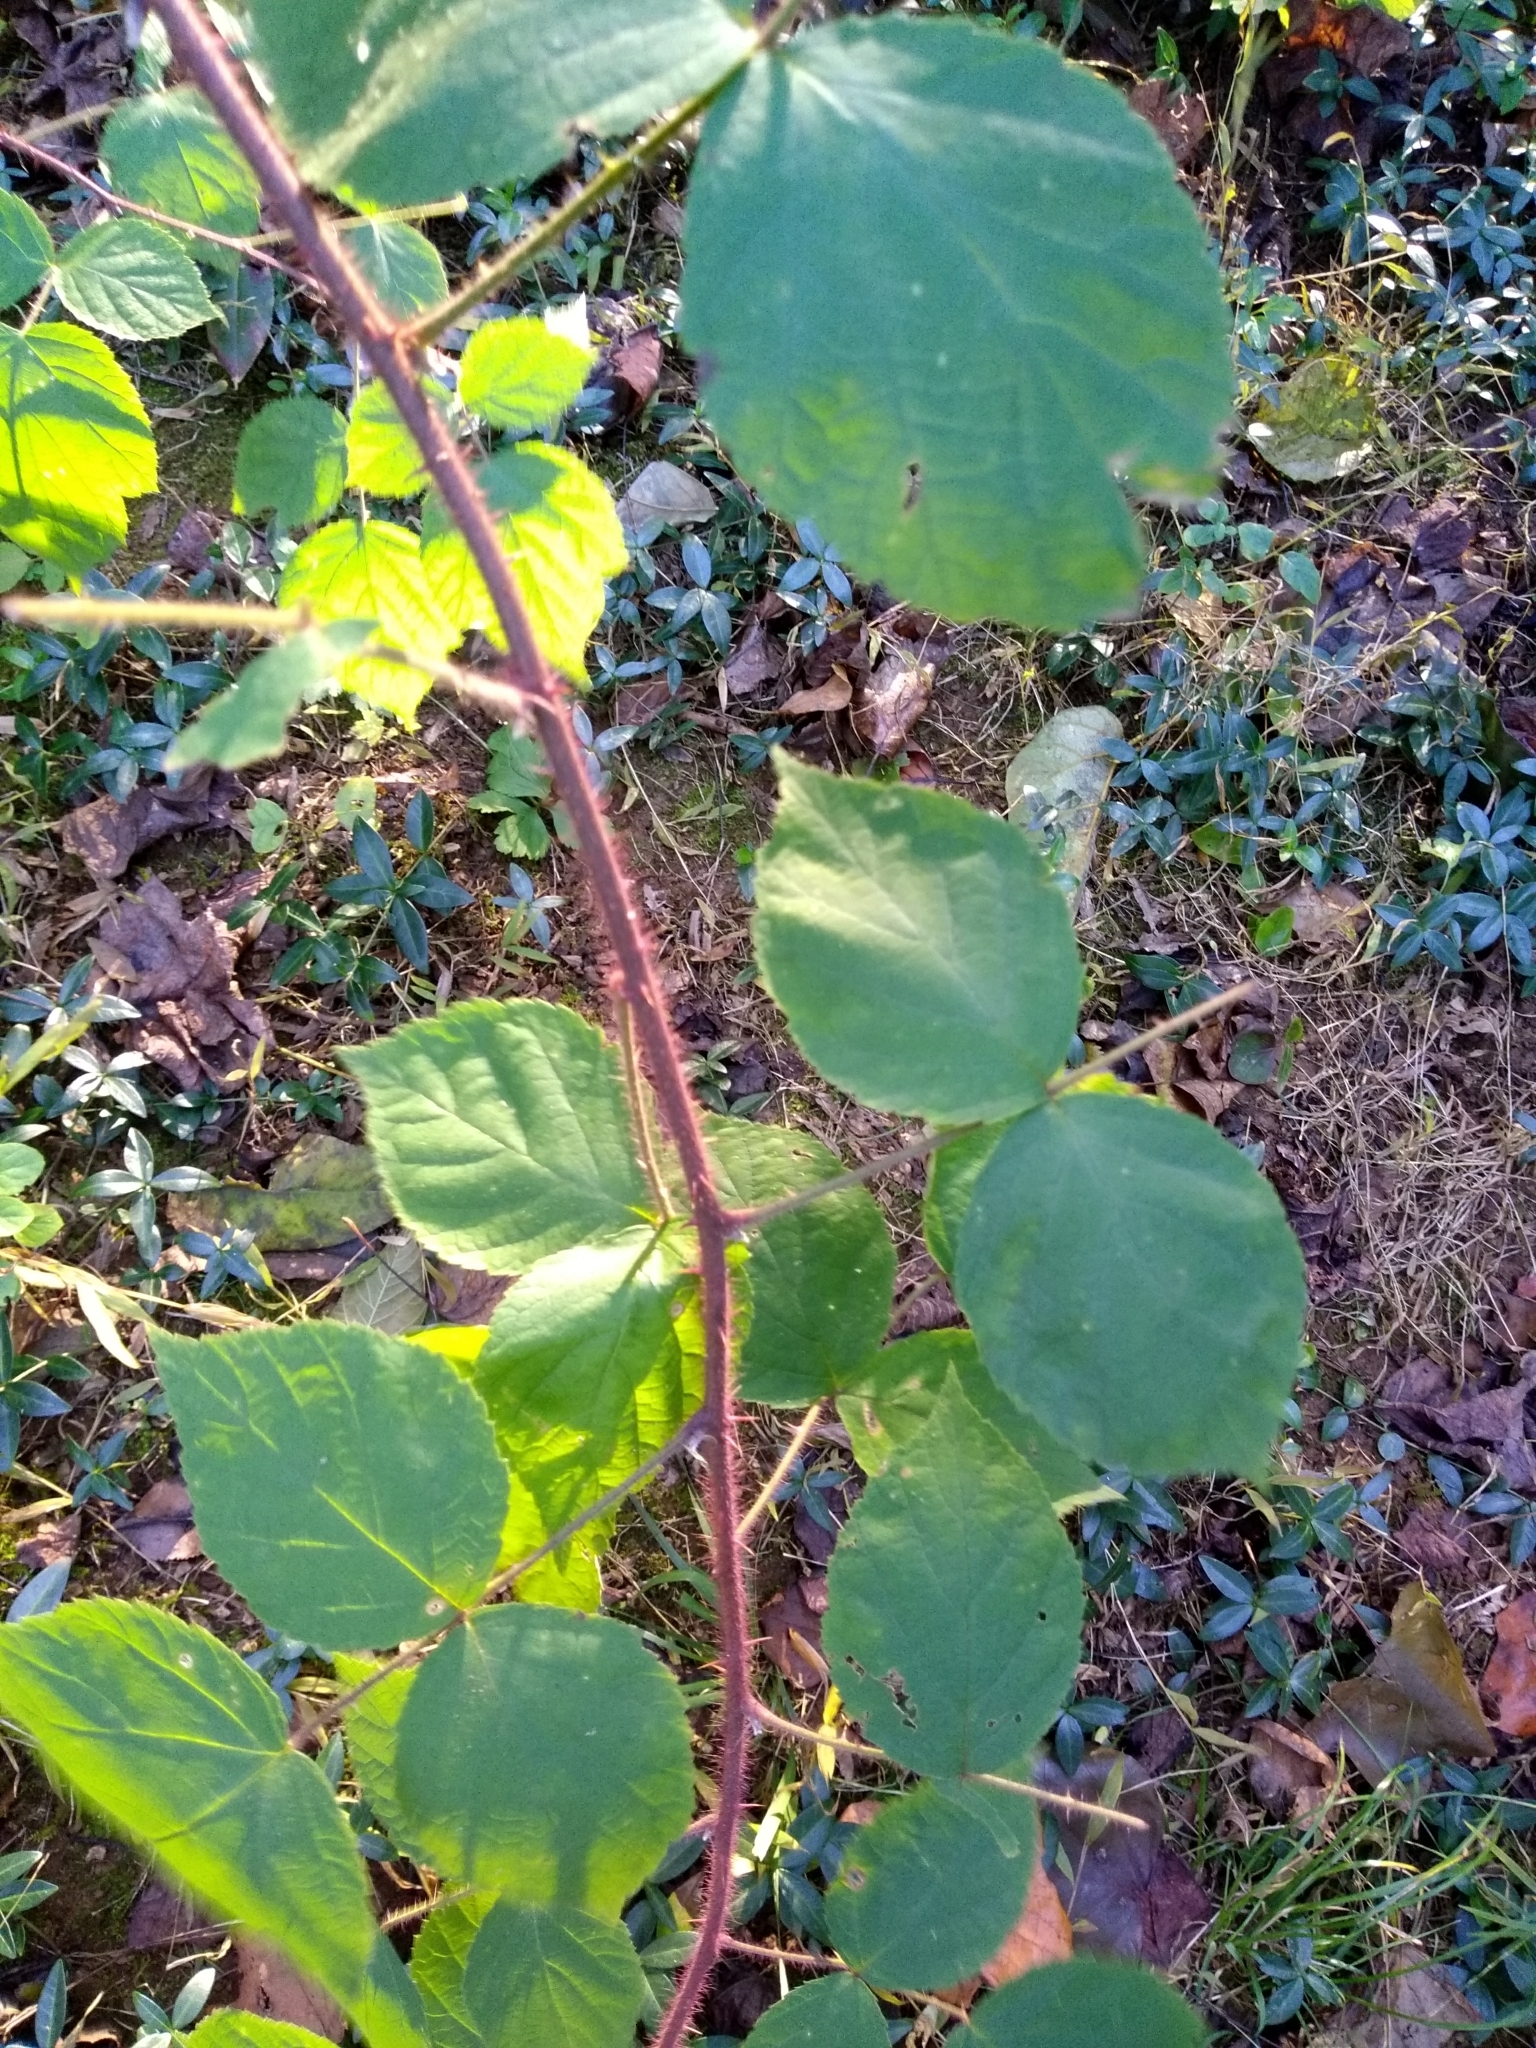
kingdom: Plantae
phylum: Tracheophyta
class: Magnoliopsida
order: Rosales
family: Rosaceae
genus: Rubus
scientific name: Rubus phoenicolasius
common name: Japanese wineberry
